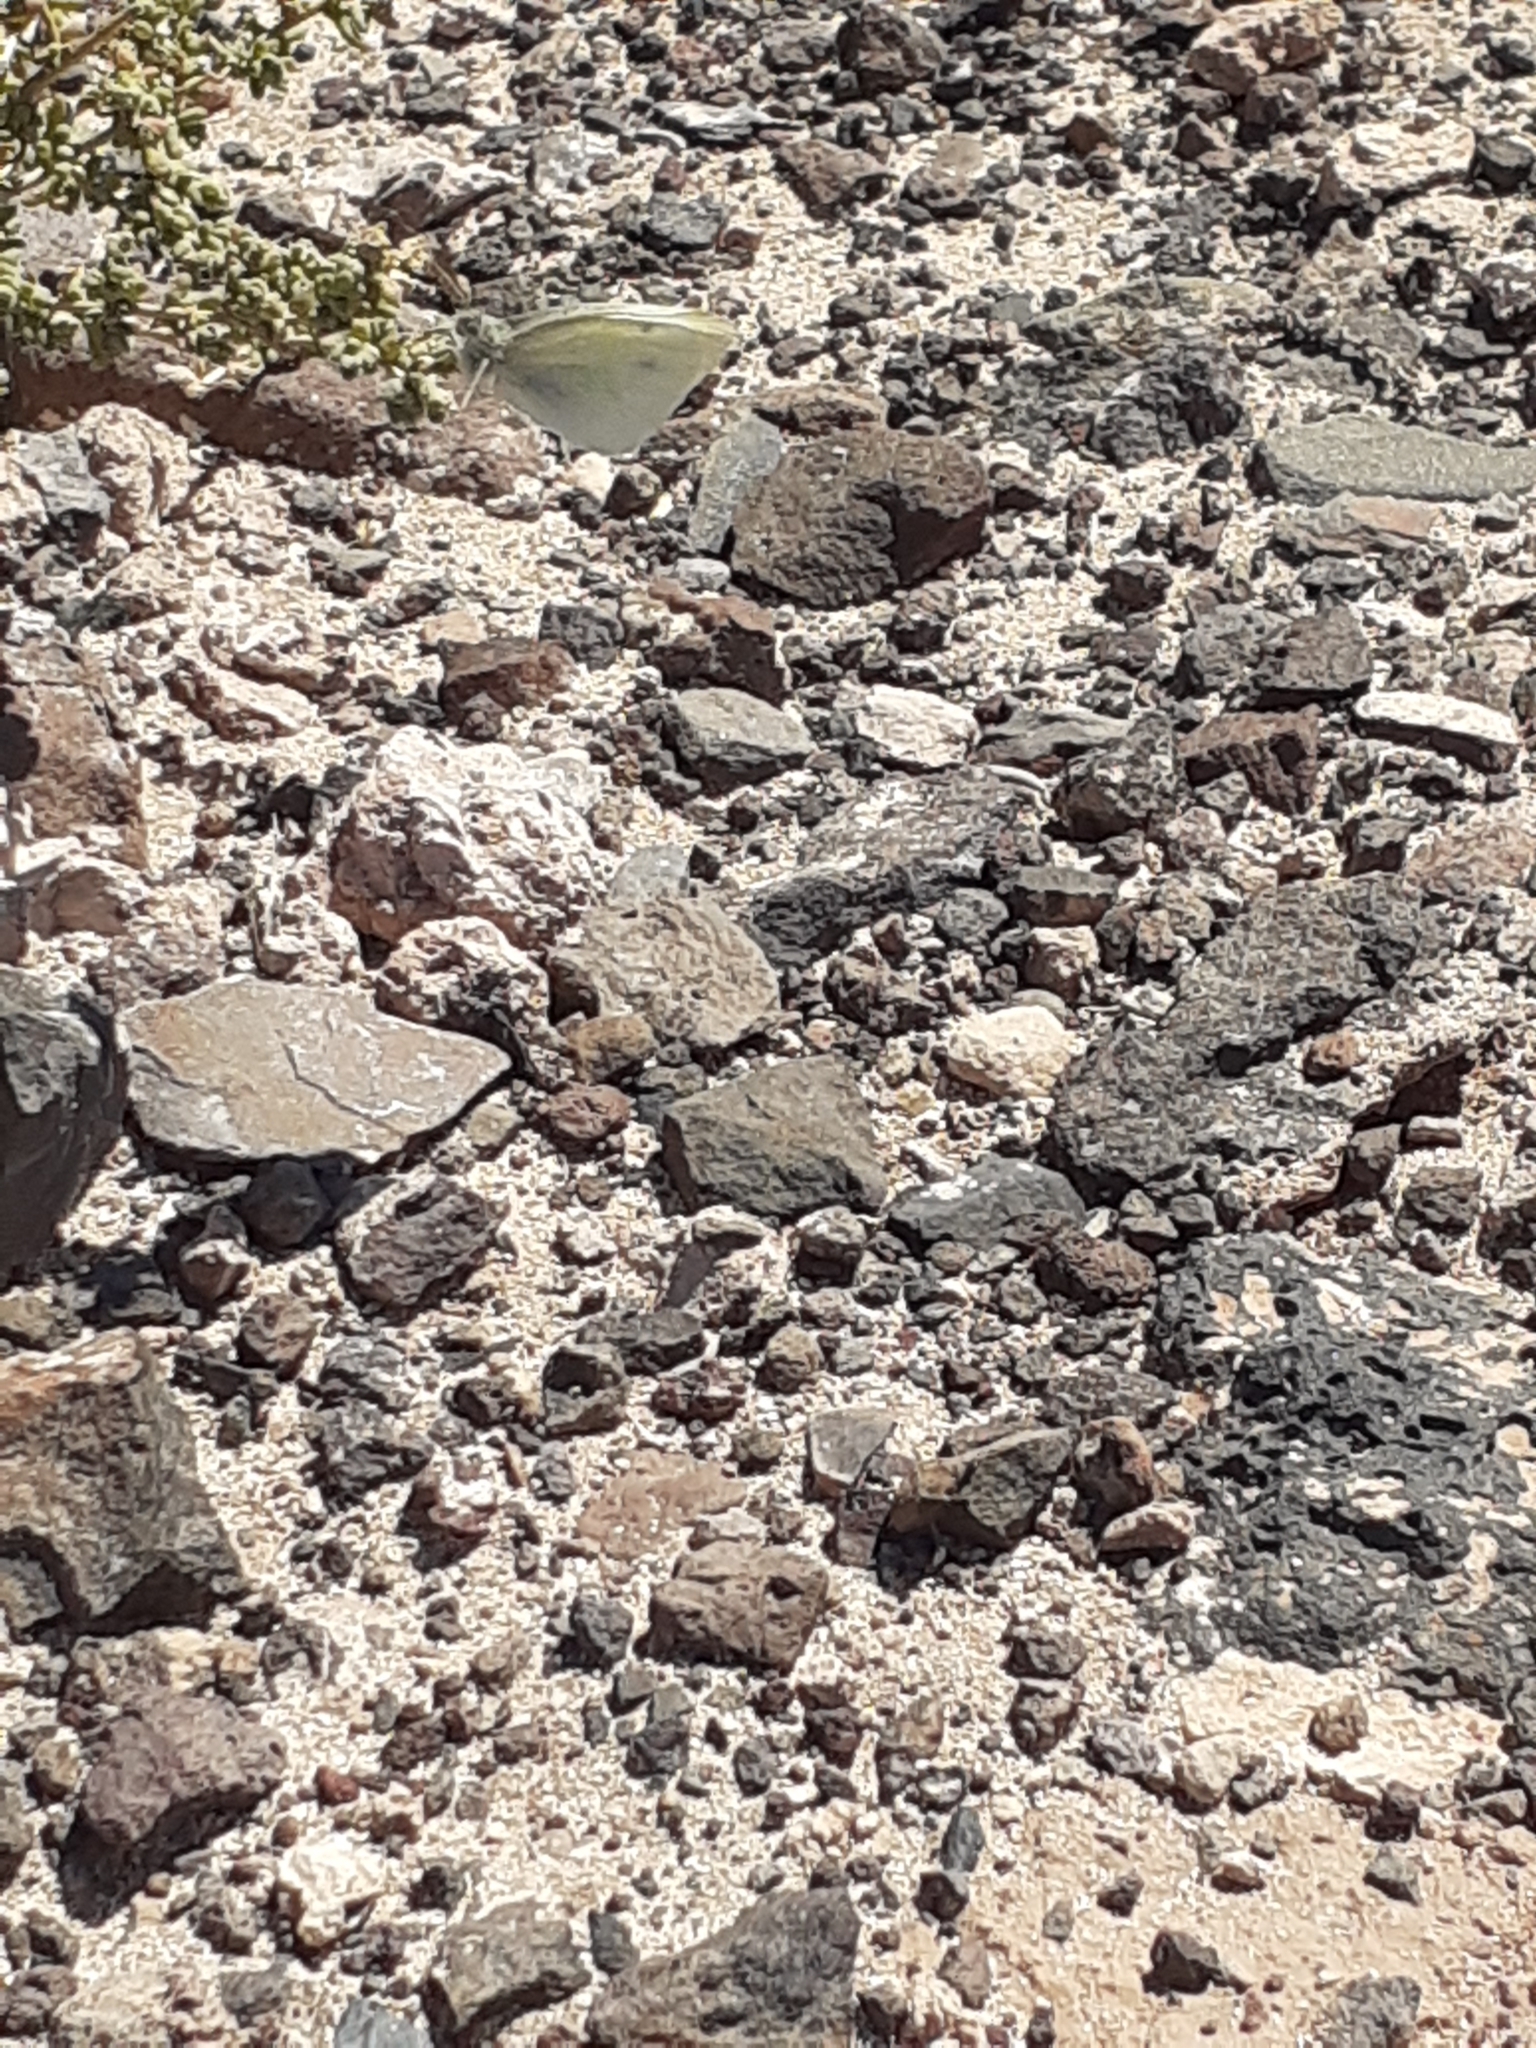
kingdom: Animalia
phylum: Arthropoda
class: Insecta
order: Lepidoptera
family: Pieridae
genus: Pieris
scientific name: Pieris rapae
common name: Small white
